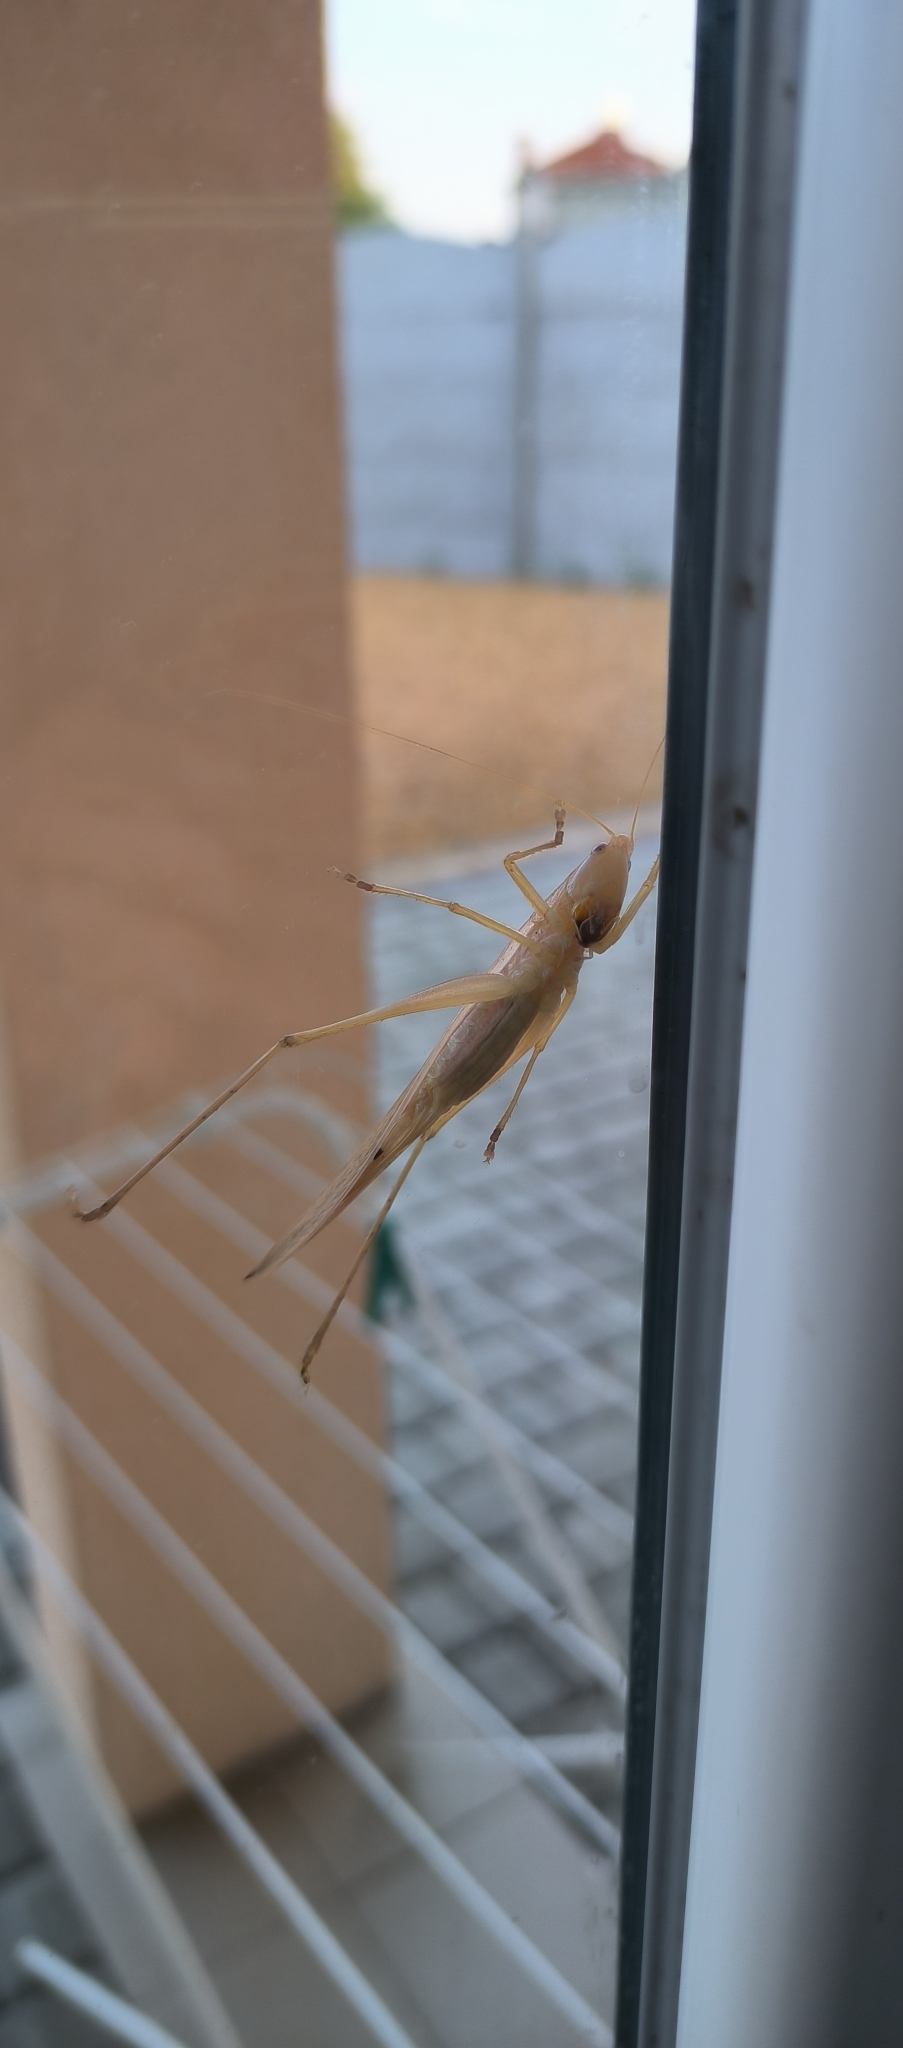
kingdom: Animalia
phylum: Arthropoda
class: Insecta
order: Orthoptera
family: Tettigoniidae
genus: Ruspolia
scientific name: Ruspolia nitidula
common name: Large conehead
